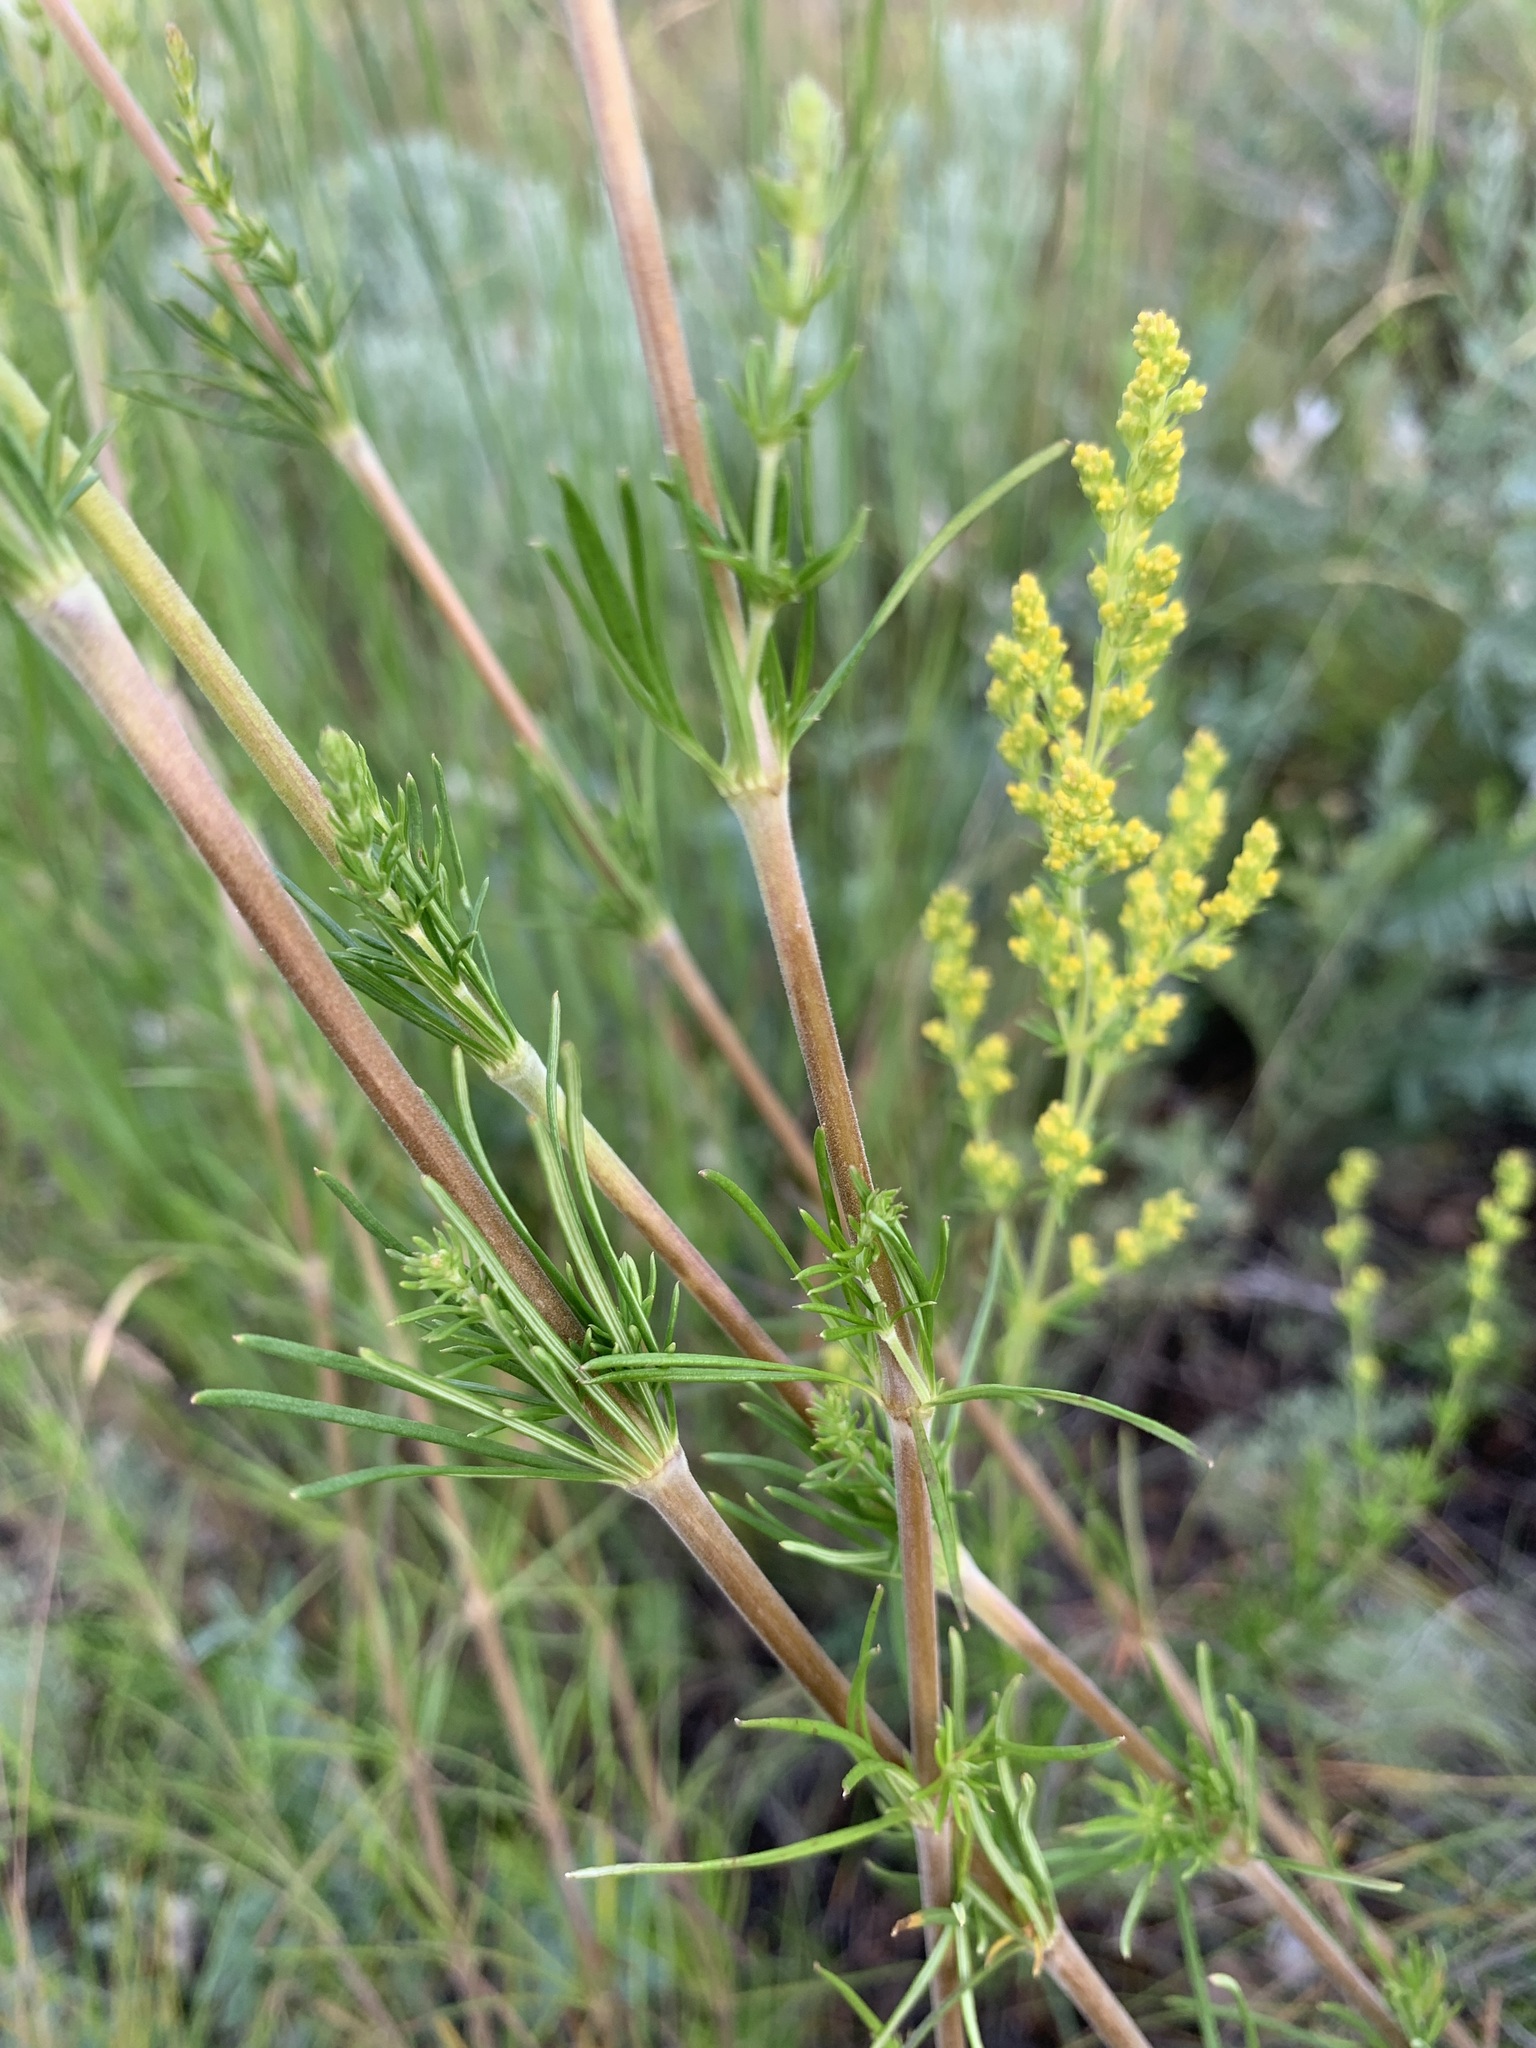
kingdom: Plantae
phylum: Tracheophyta
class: Magnoliopsida
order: Gentianales
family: Rubiaceae
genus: Galium
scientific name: Galium verum
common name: Lady's bedstraw
